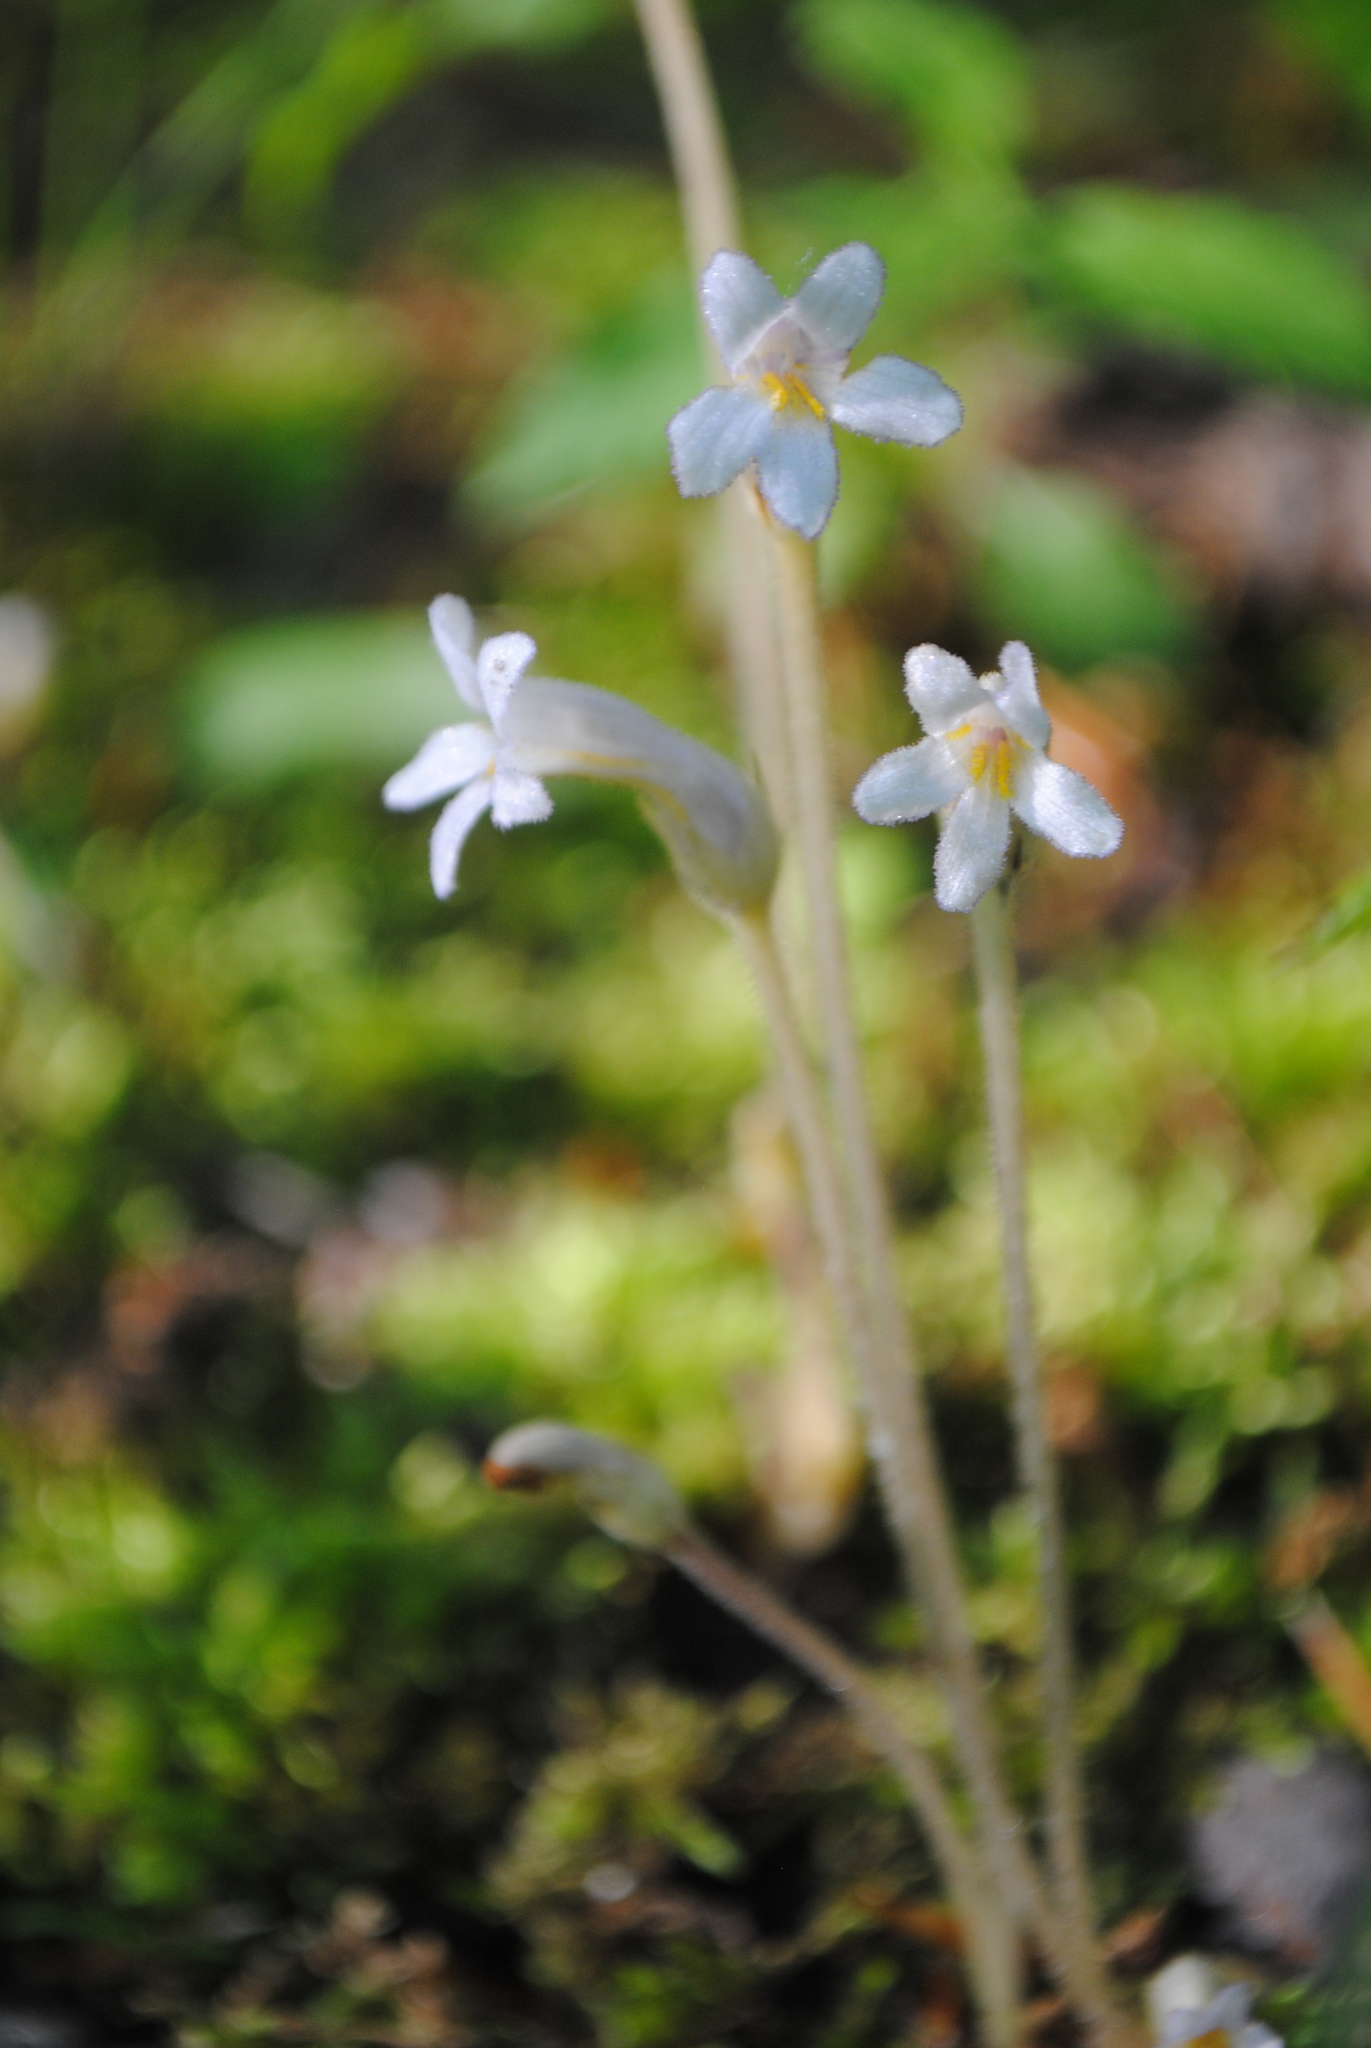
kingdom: Plantae
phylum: Tracheophyta
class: Magnoliopsida
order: Lamiales
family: Orobanchaceae
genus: Aphyllon
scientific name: Aphyllon uniflorum
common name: One-flowered broomrape
